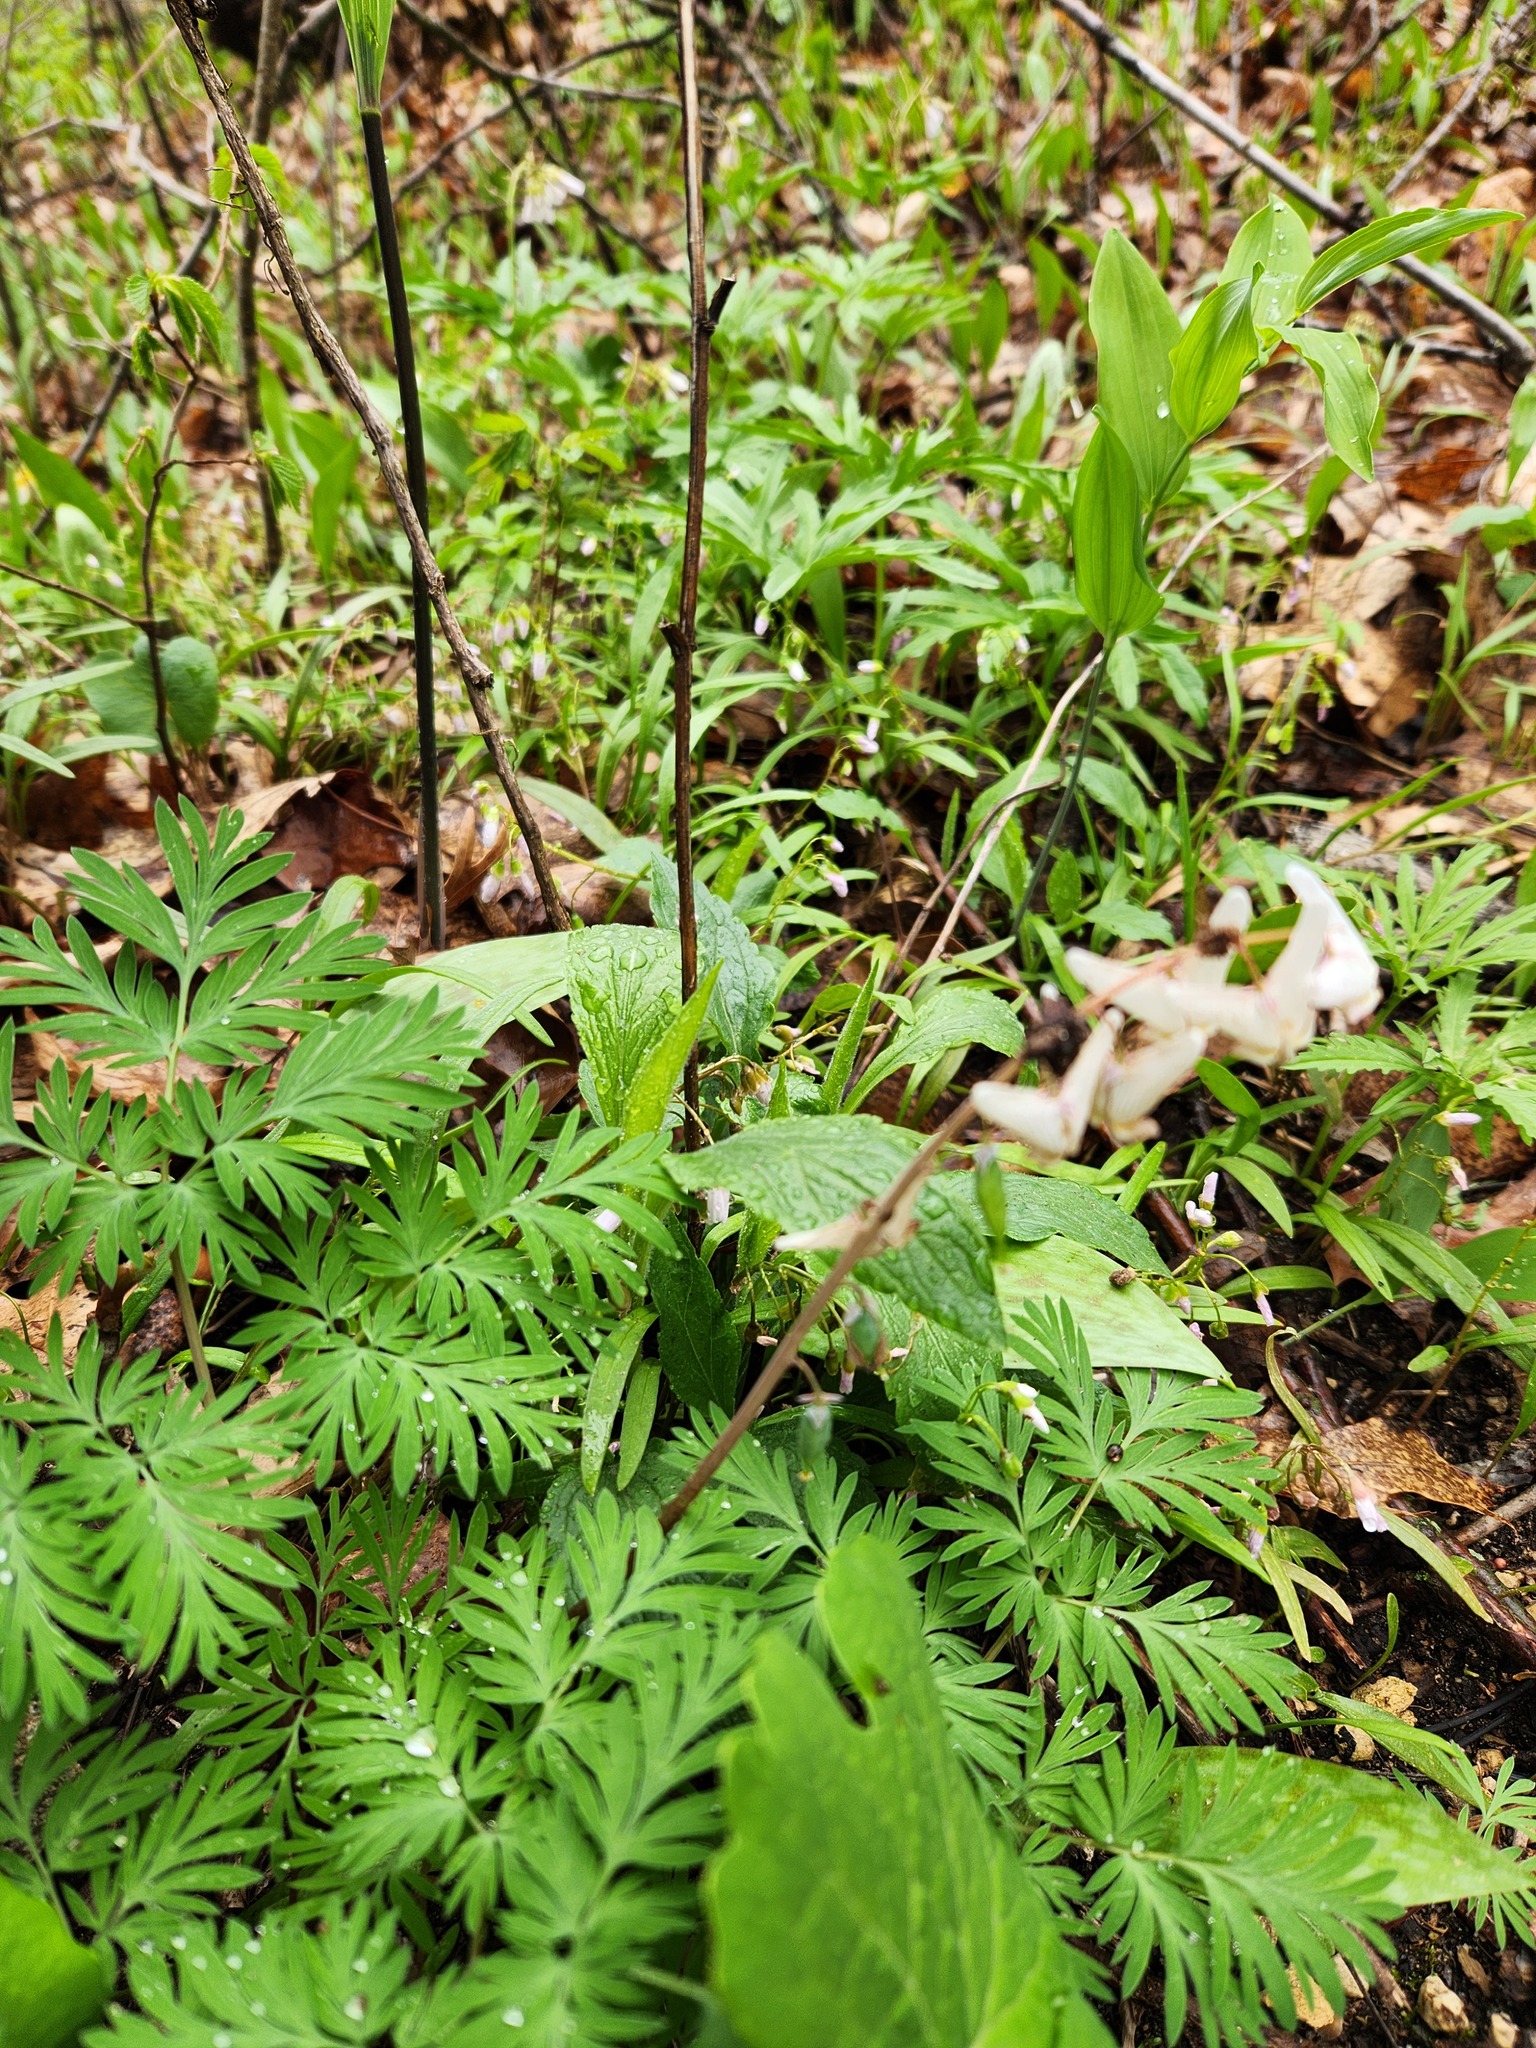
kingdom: Plantae
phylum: Tracheophyta
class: Magnoliopsida
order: Ranunculales
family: Papaveraceae
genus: Dicentra
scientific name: Dicentra cucullaria
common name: Dutchman's breeches
